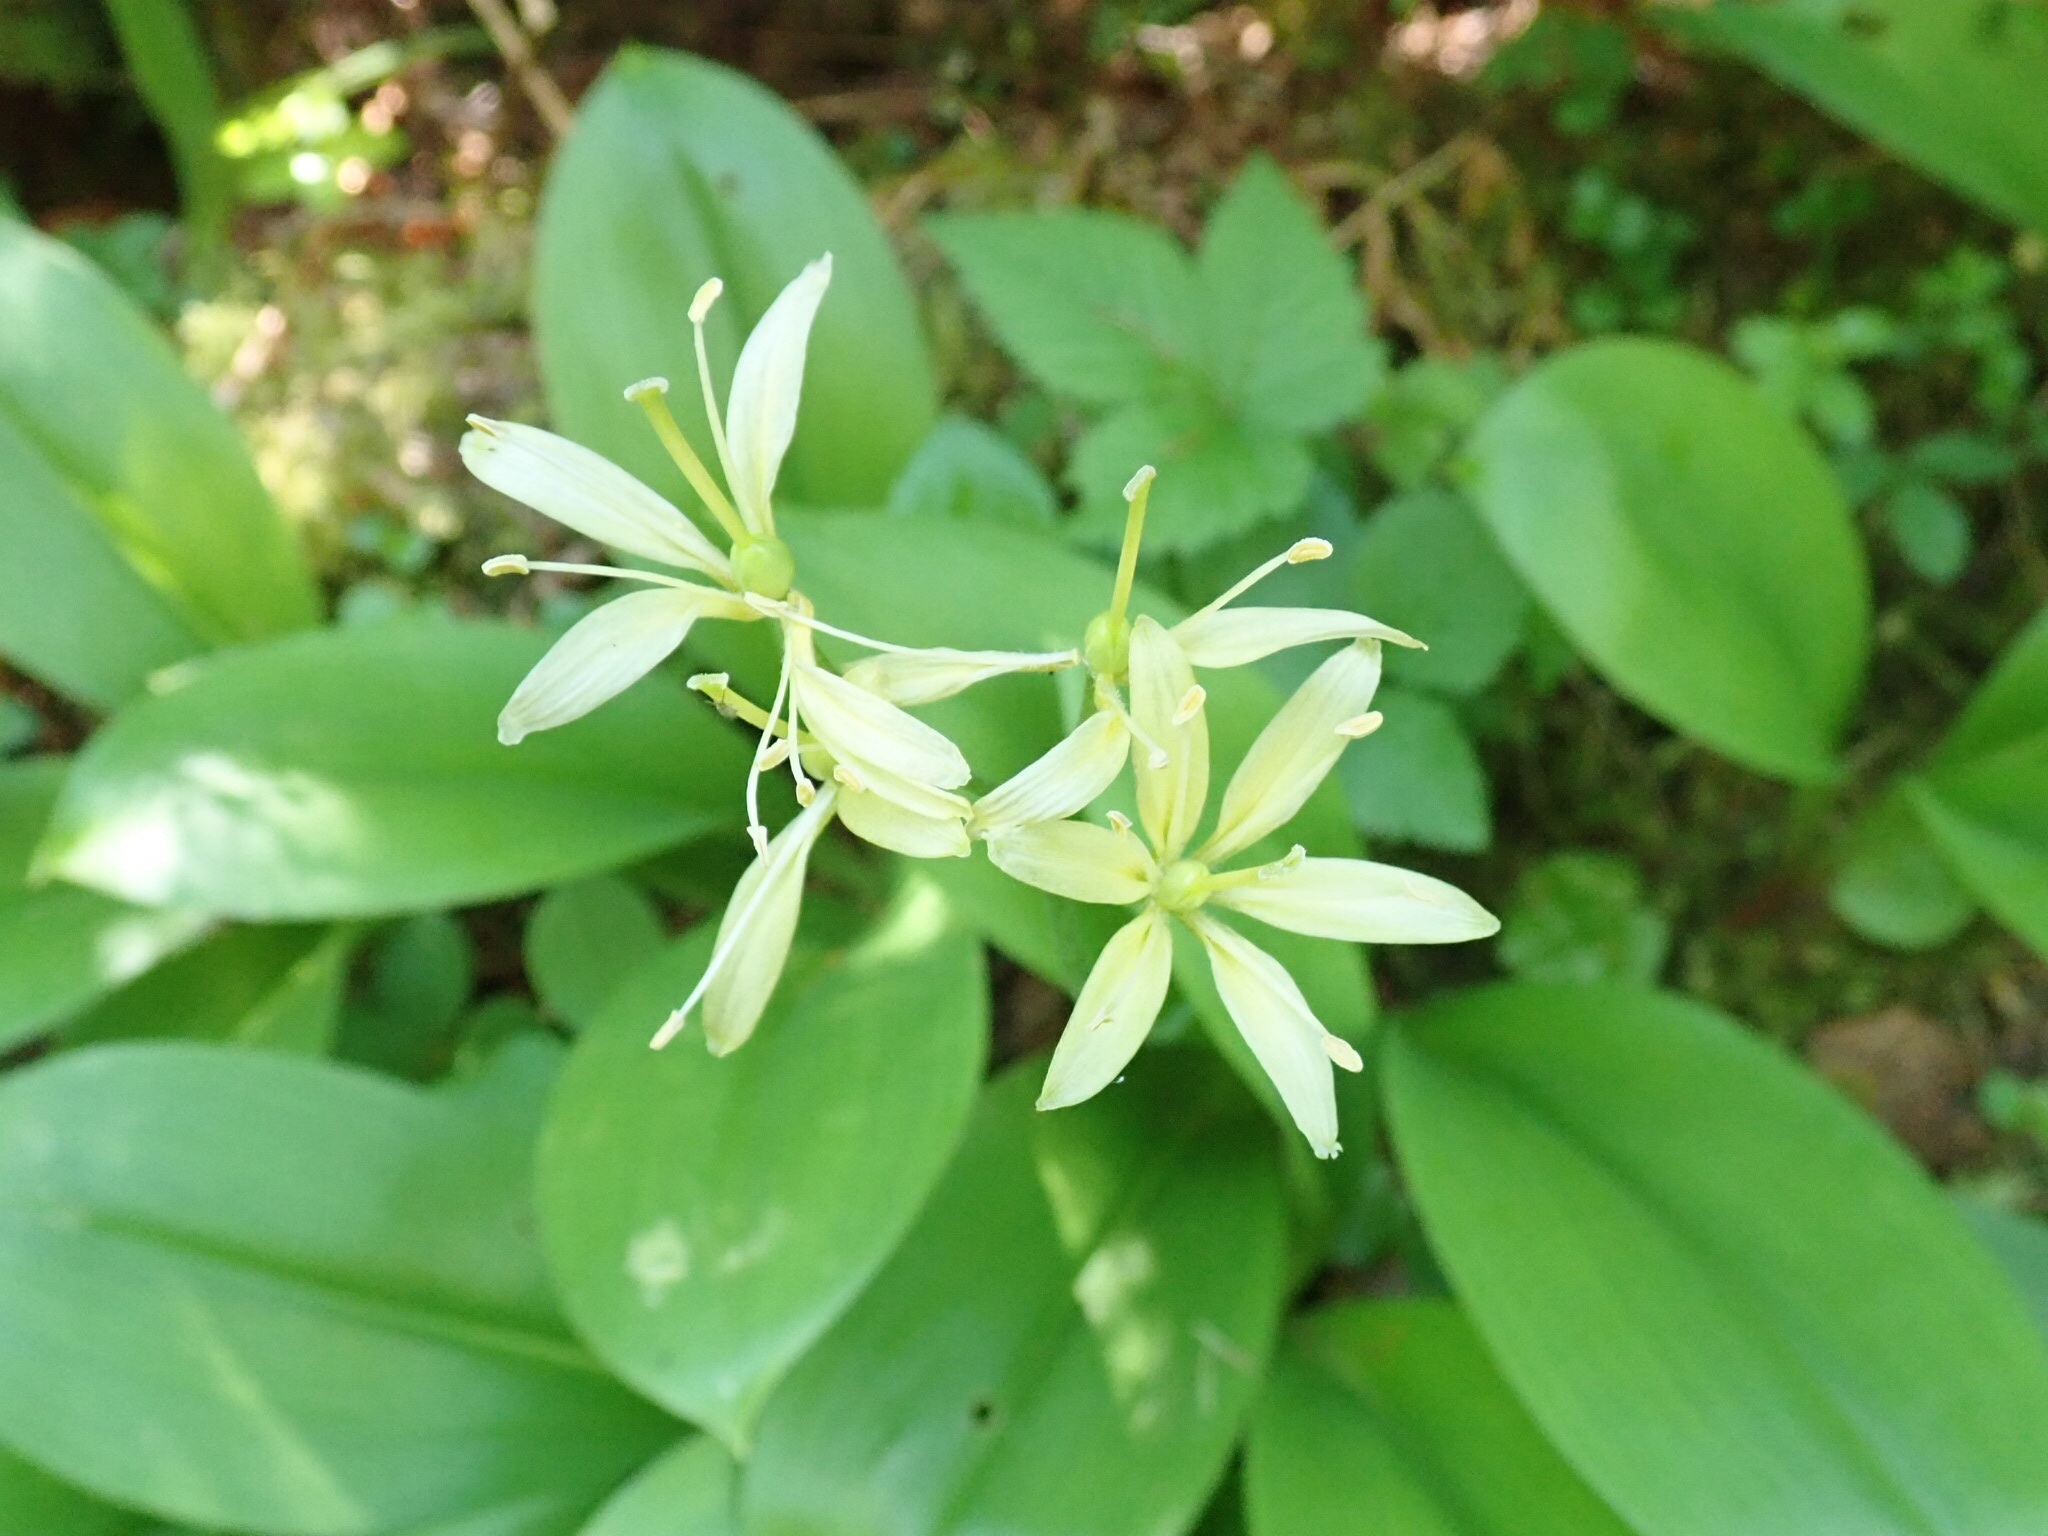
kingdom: Plantae
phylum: Tracheophyta
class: Liliopsida
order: Liliales
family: Liliaceae
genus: Clintonia
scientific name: Clintonia borealis
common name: Yellow clintonia
